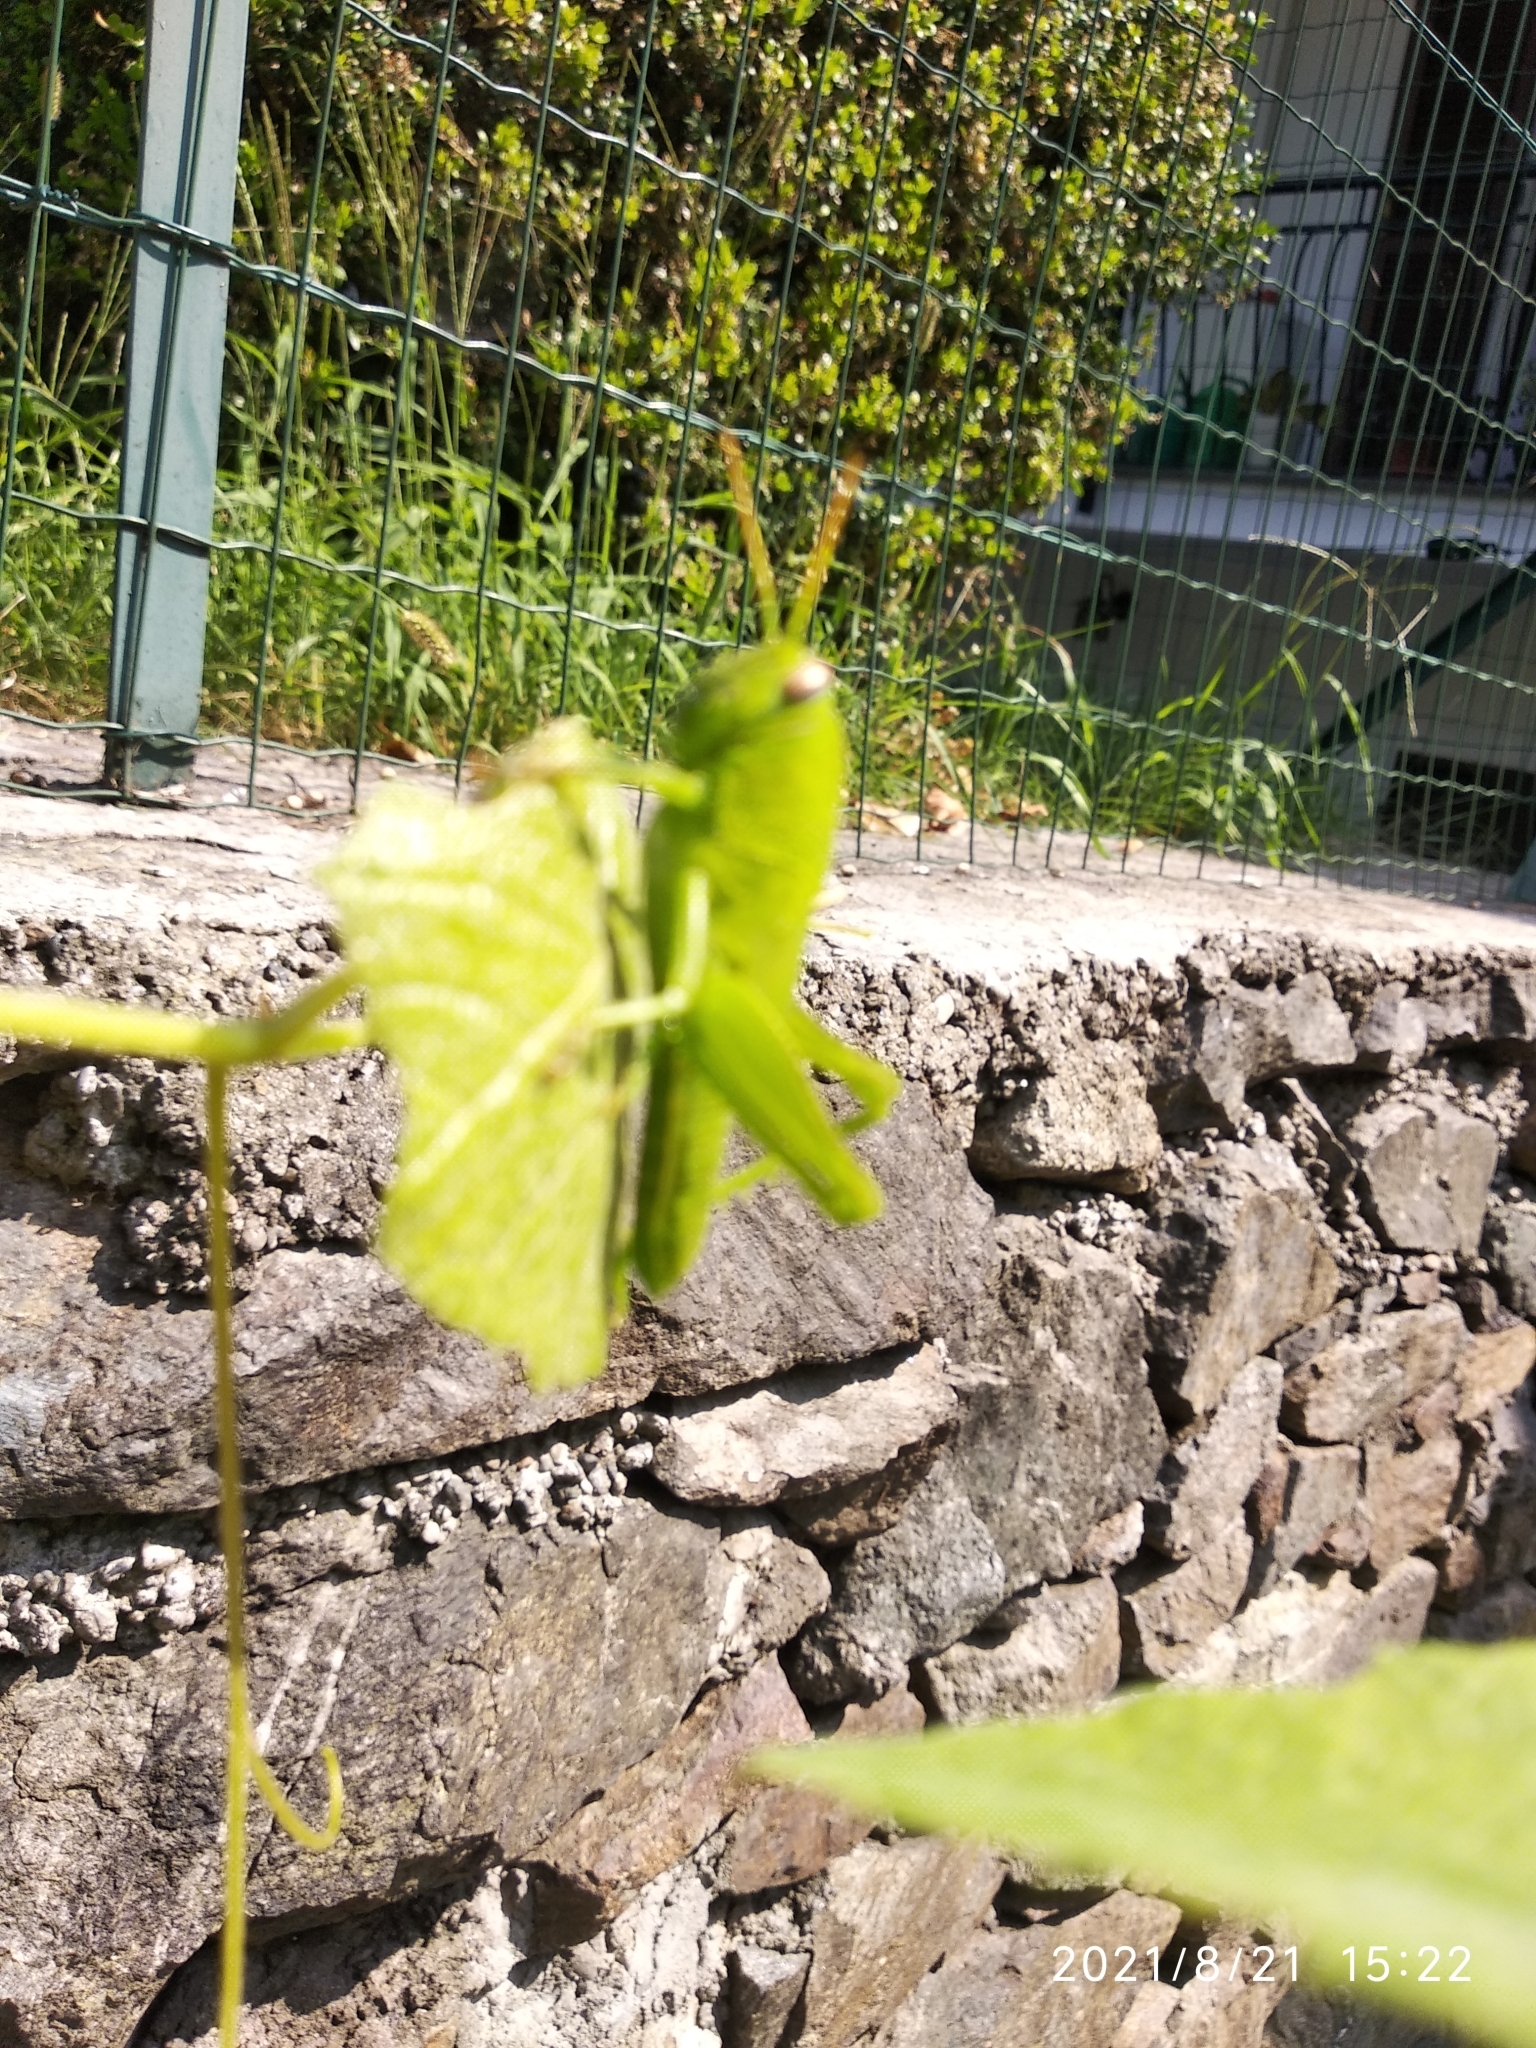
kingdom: Animalia
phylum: Arthropoda
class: Insecta
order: Orthoptera
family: Acrididae
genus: Anacridium
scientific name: Anacridium aegyptium
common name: Egyptian grasshopper
